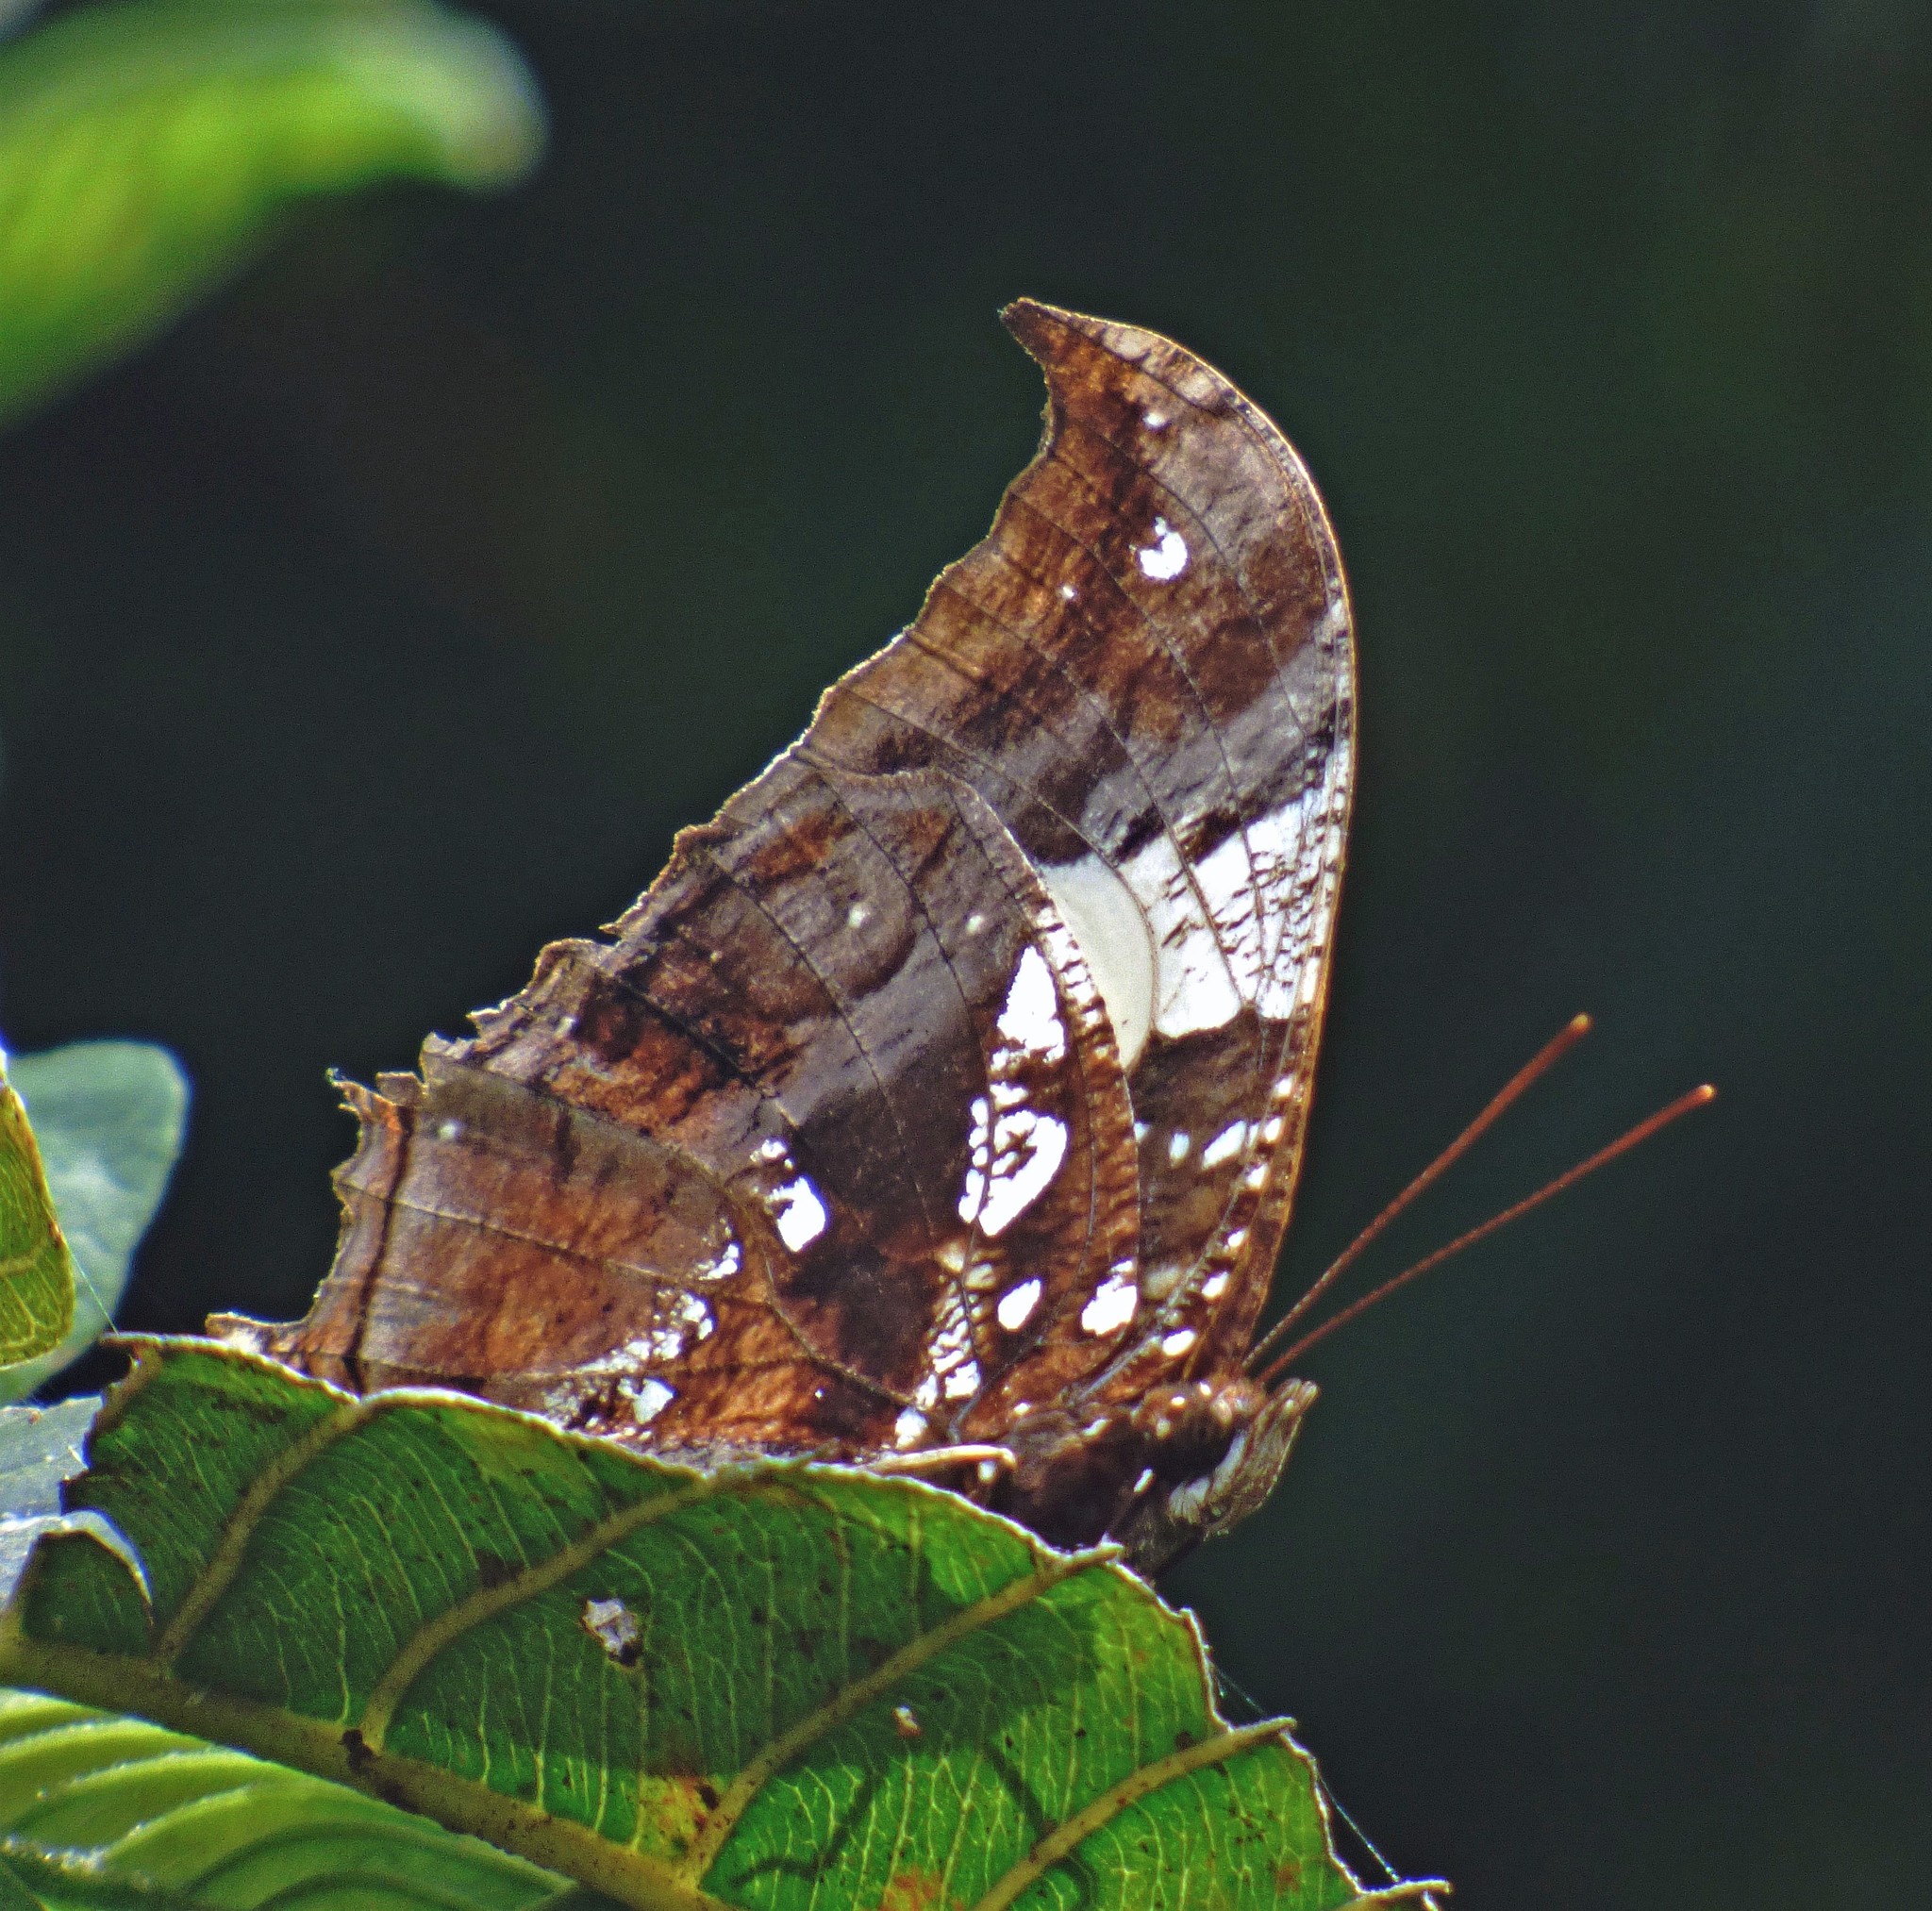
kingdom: Animalia
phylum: Arthropoda
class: Insecta
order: Lepidoptera
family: Nymphalidae
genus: Hypna
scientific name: Hypna clytemnestra
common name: Silver-studded leafwing
